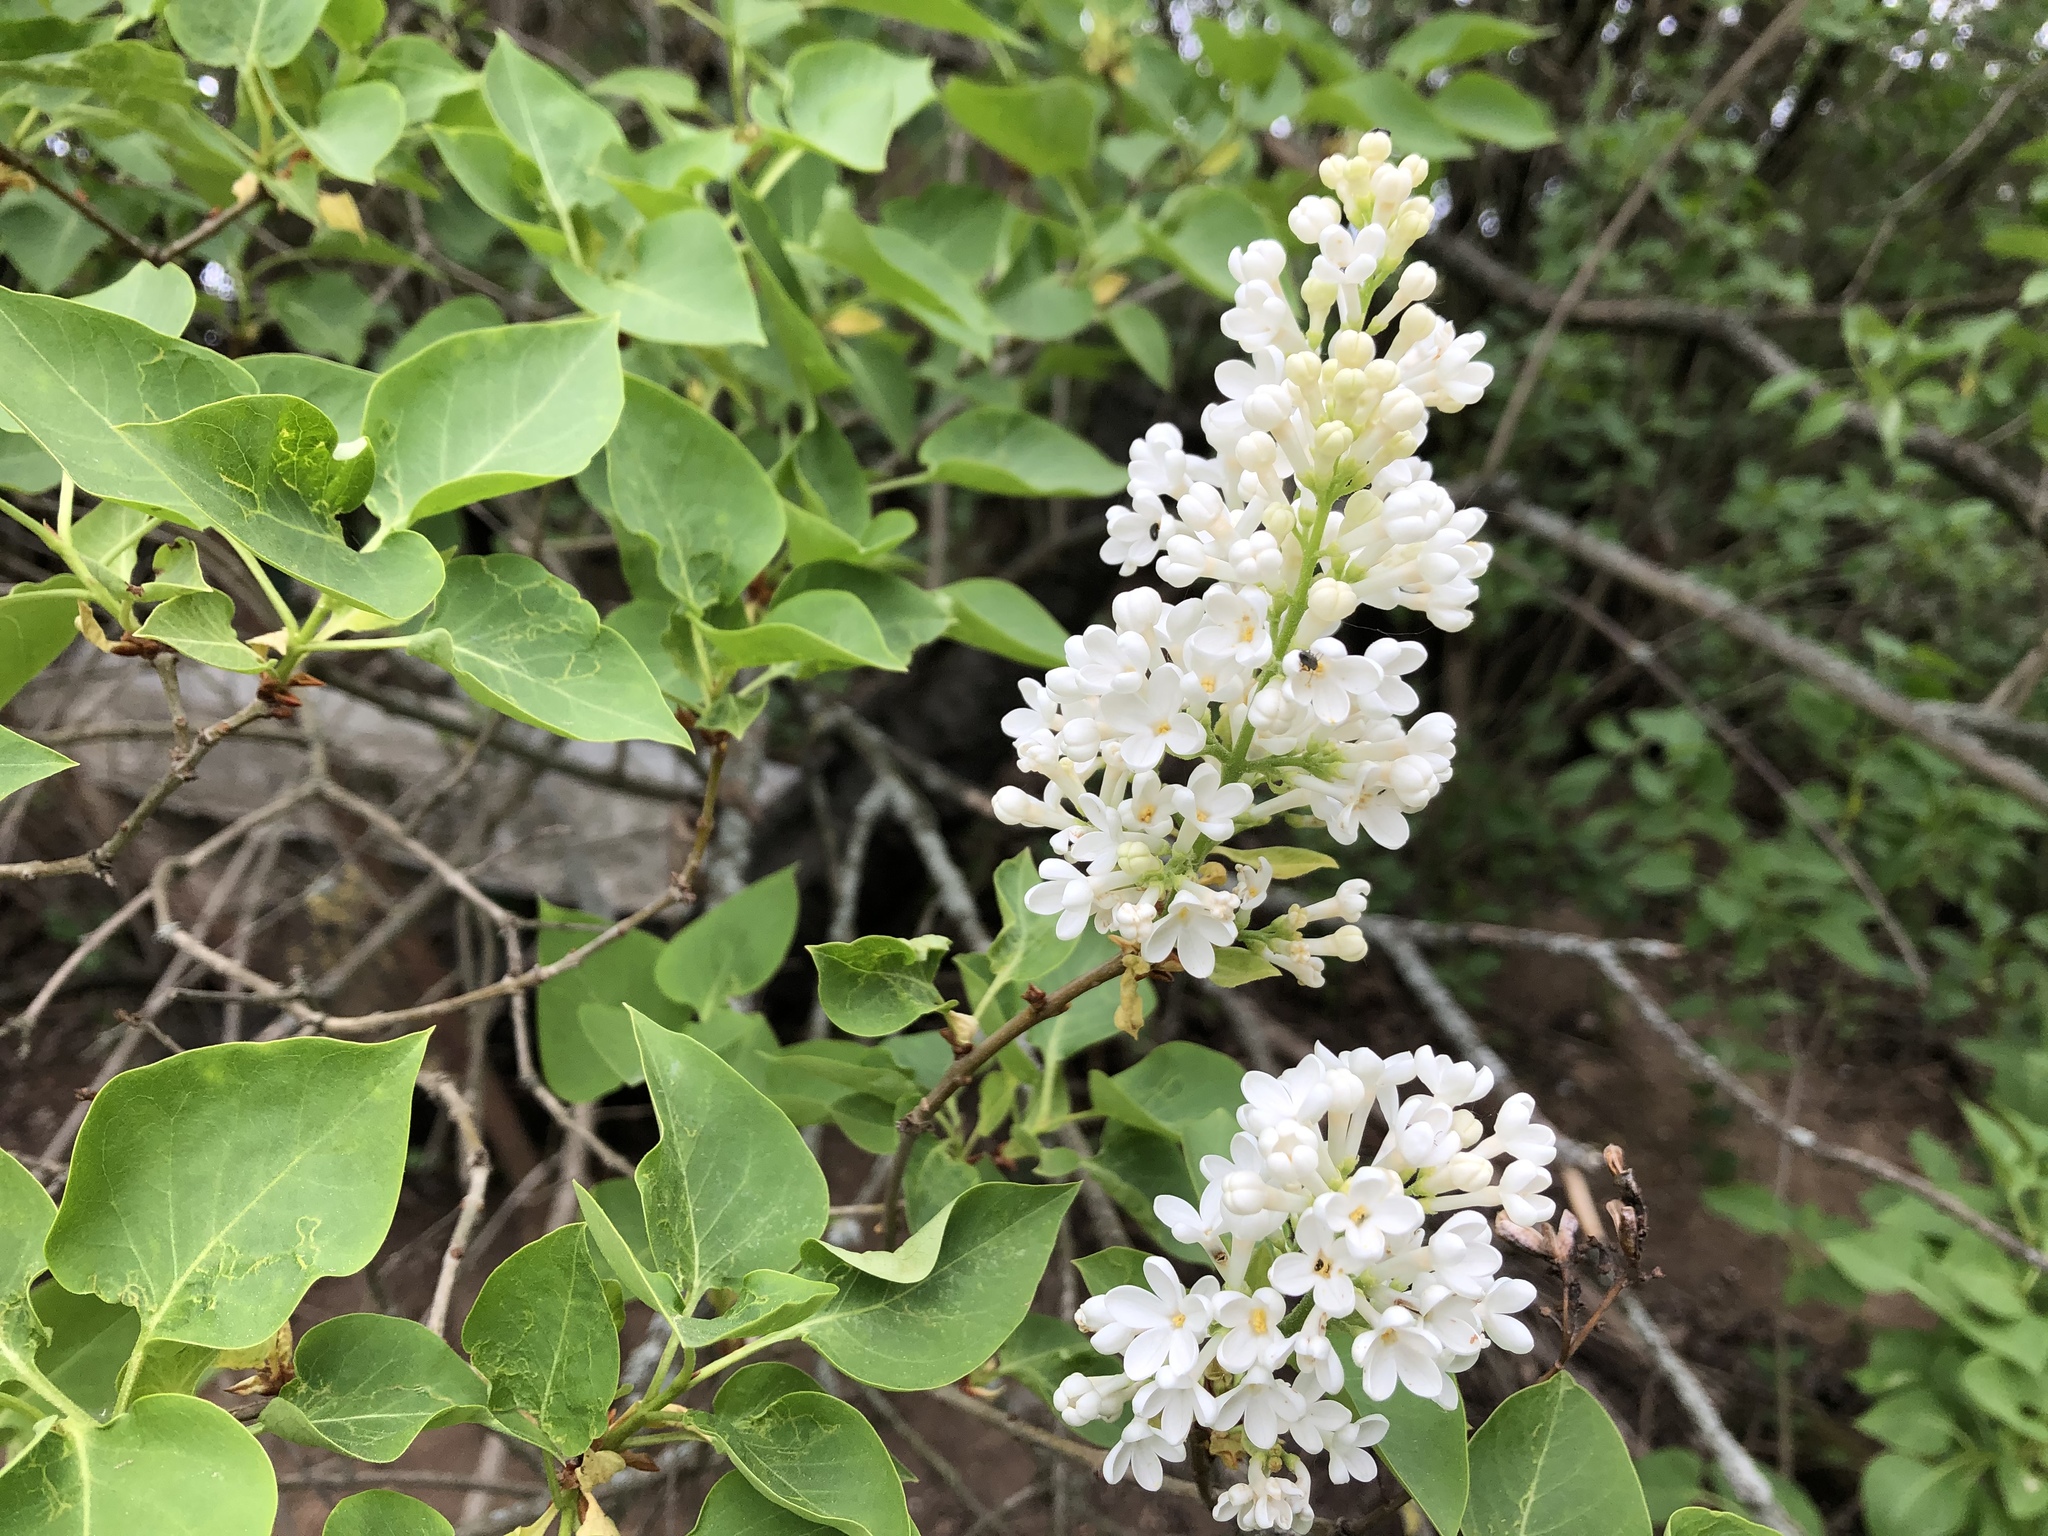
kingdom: Plantae
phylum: Tracheophyta
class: Magnoliopsida
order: Lamiales
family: Oleaceae
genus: Syringa
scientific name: Syringa vulgaris
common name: Common lilac
